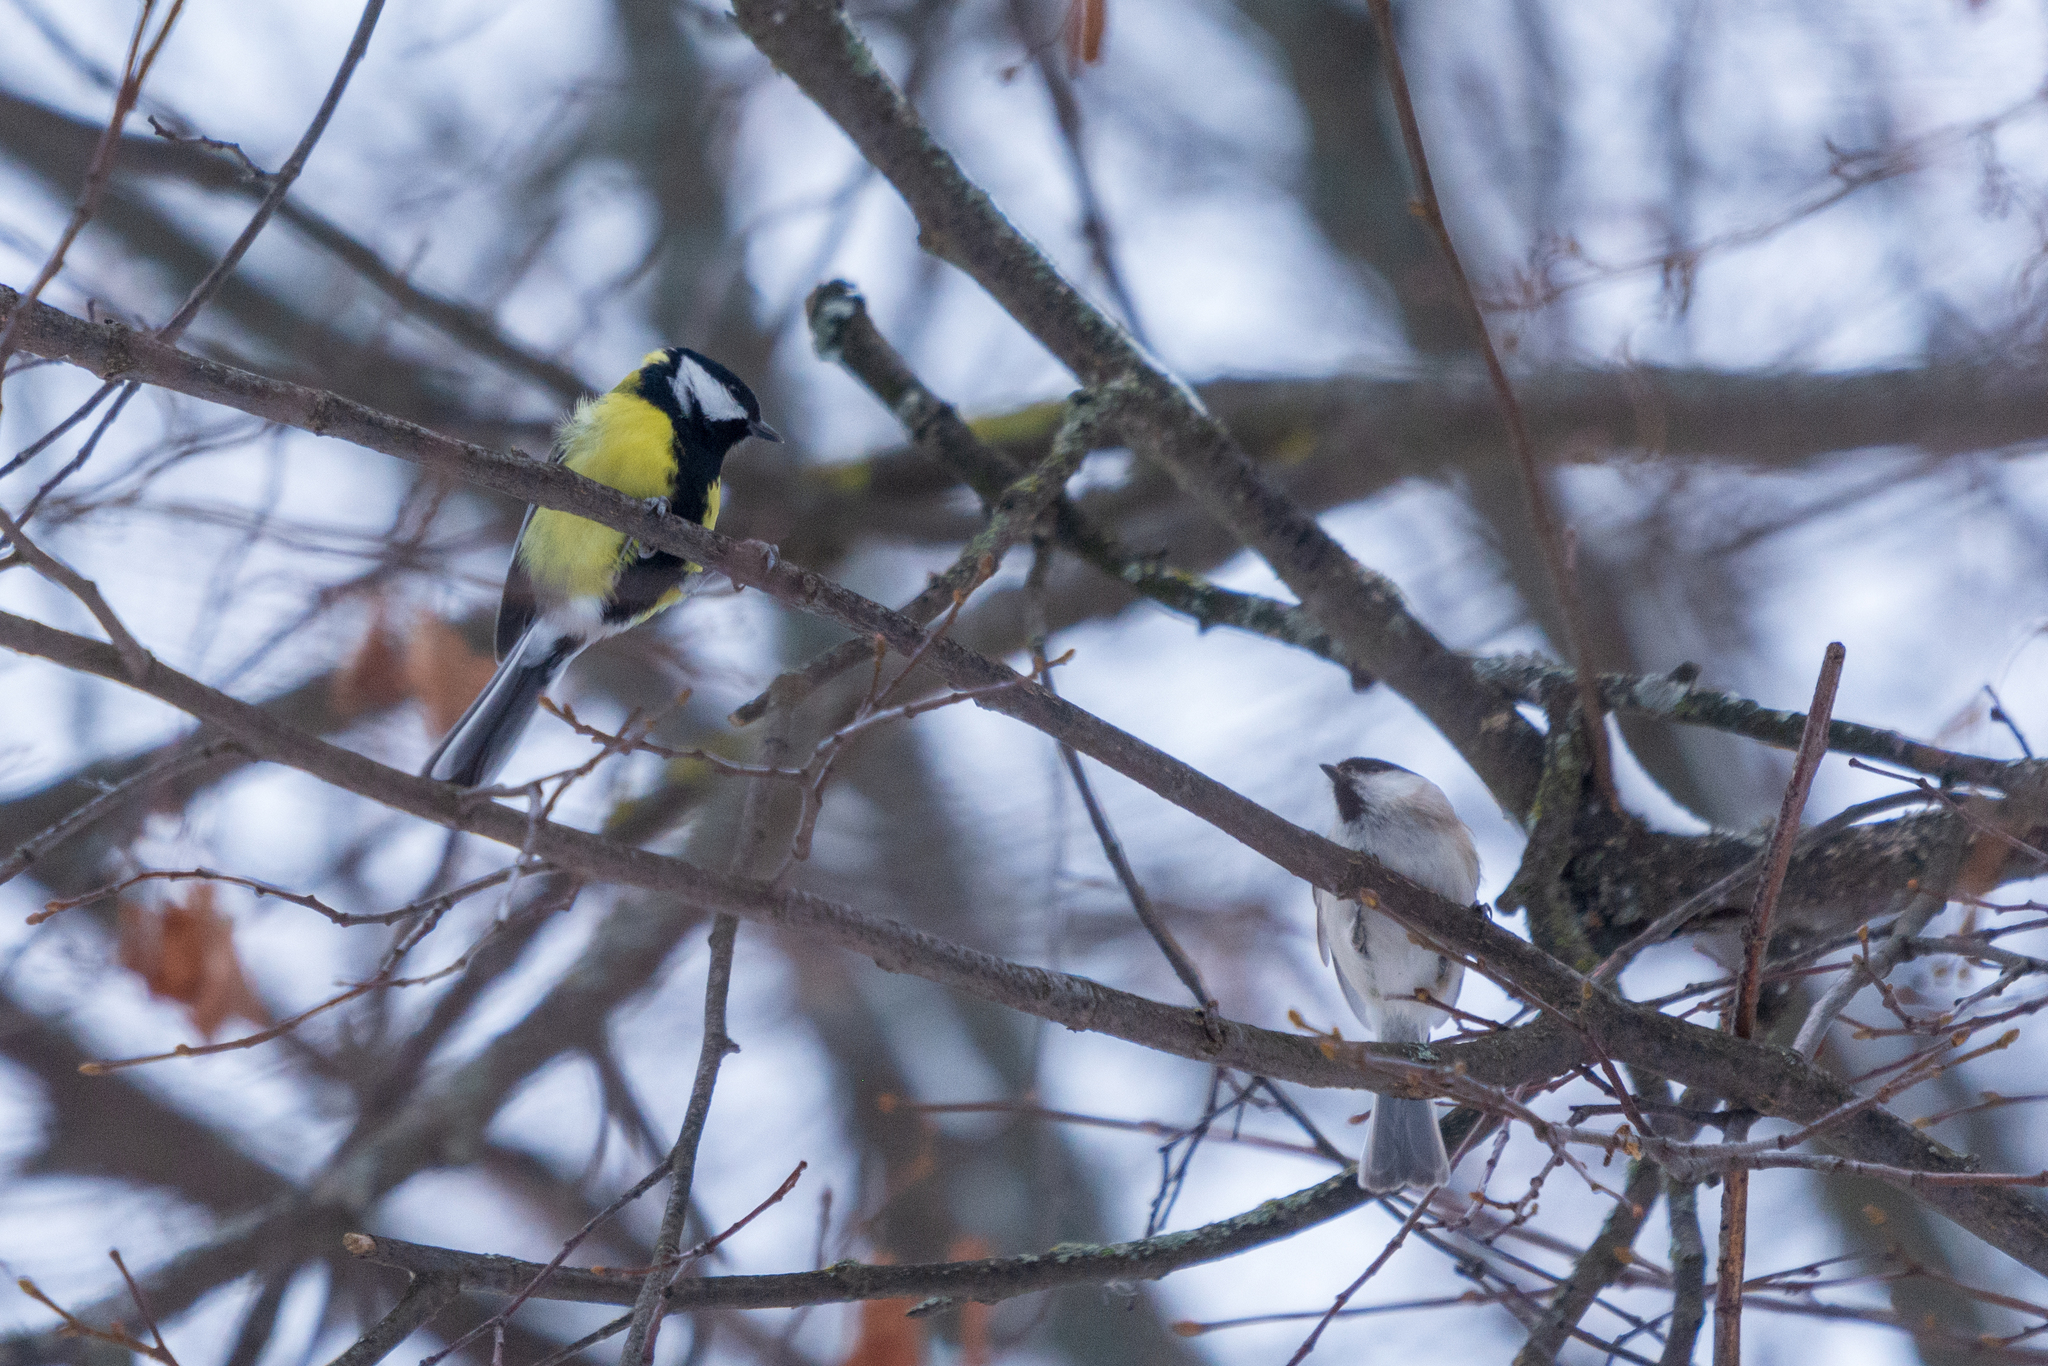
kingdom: Animalia
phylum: Chordata
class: Aves
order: Passeriformes
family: Paridae
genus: Poecile
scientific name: Poecile palustris
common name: Marsh tit
